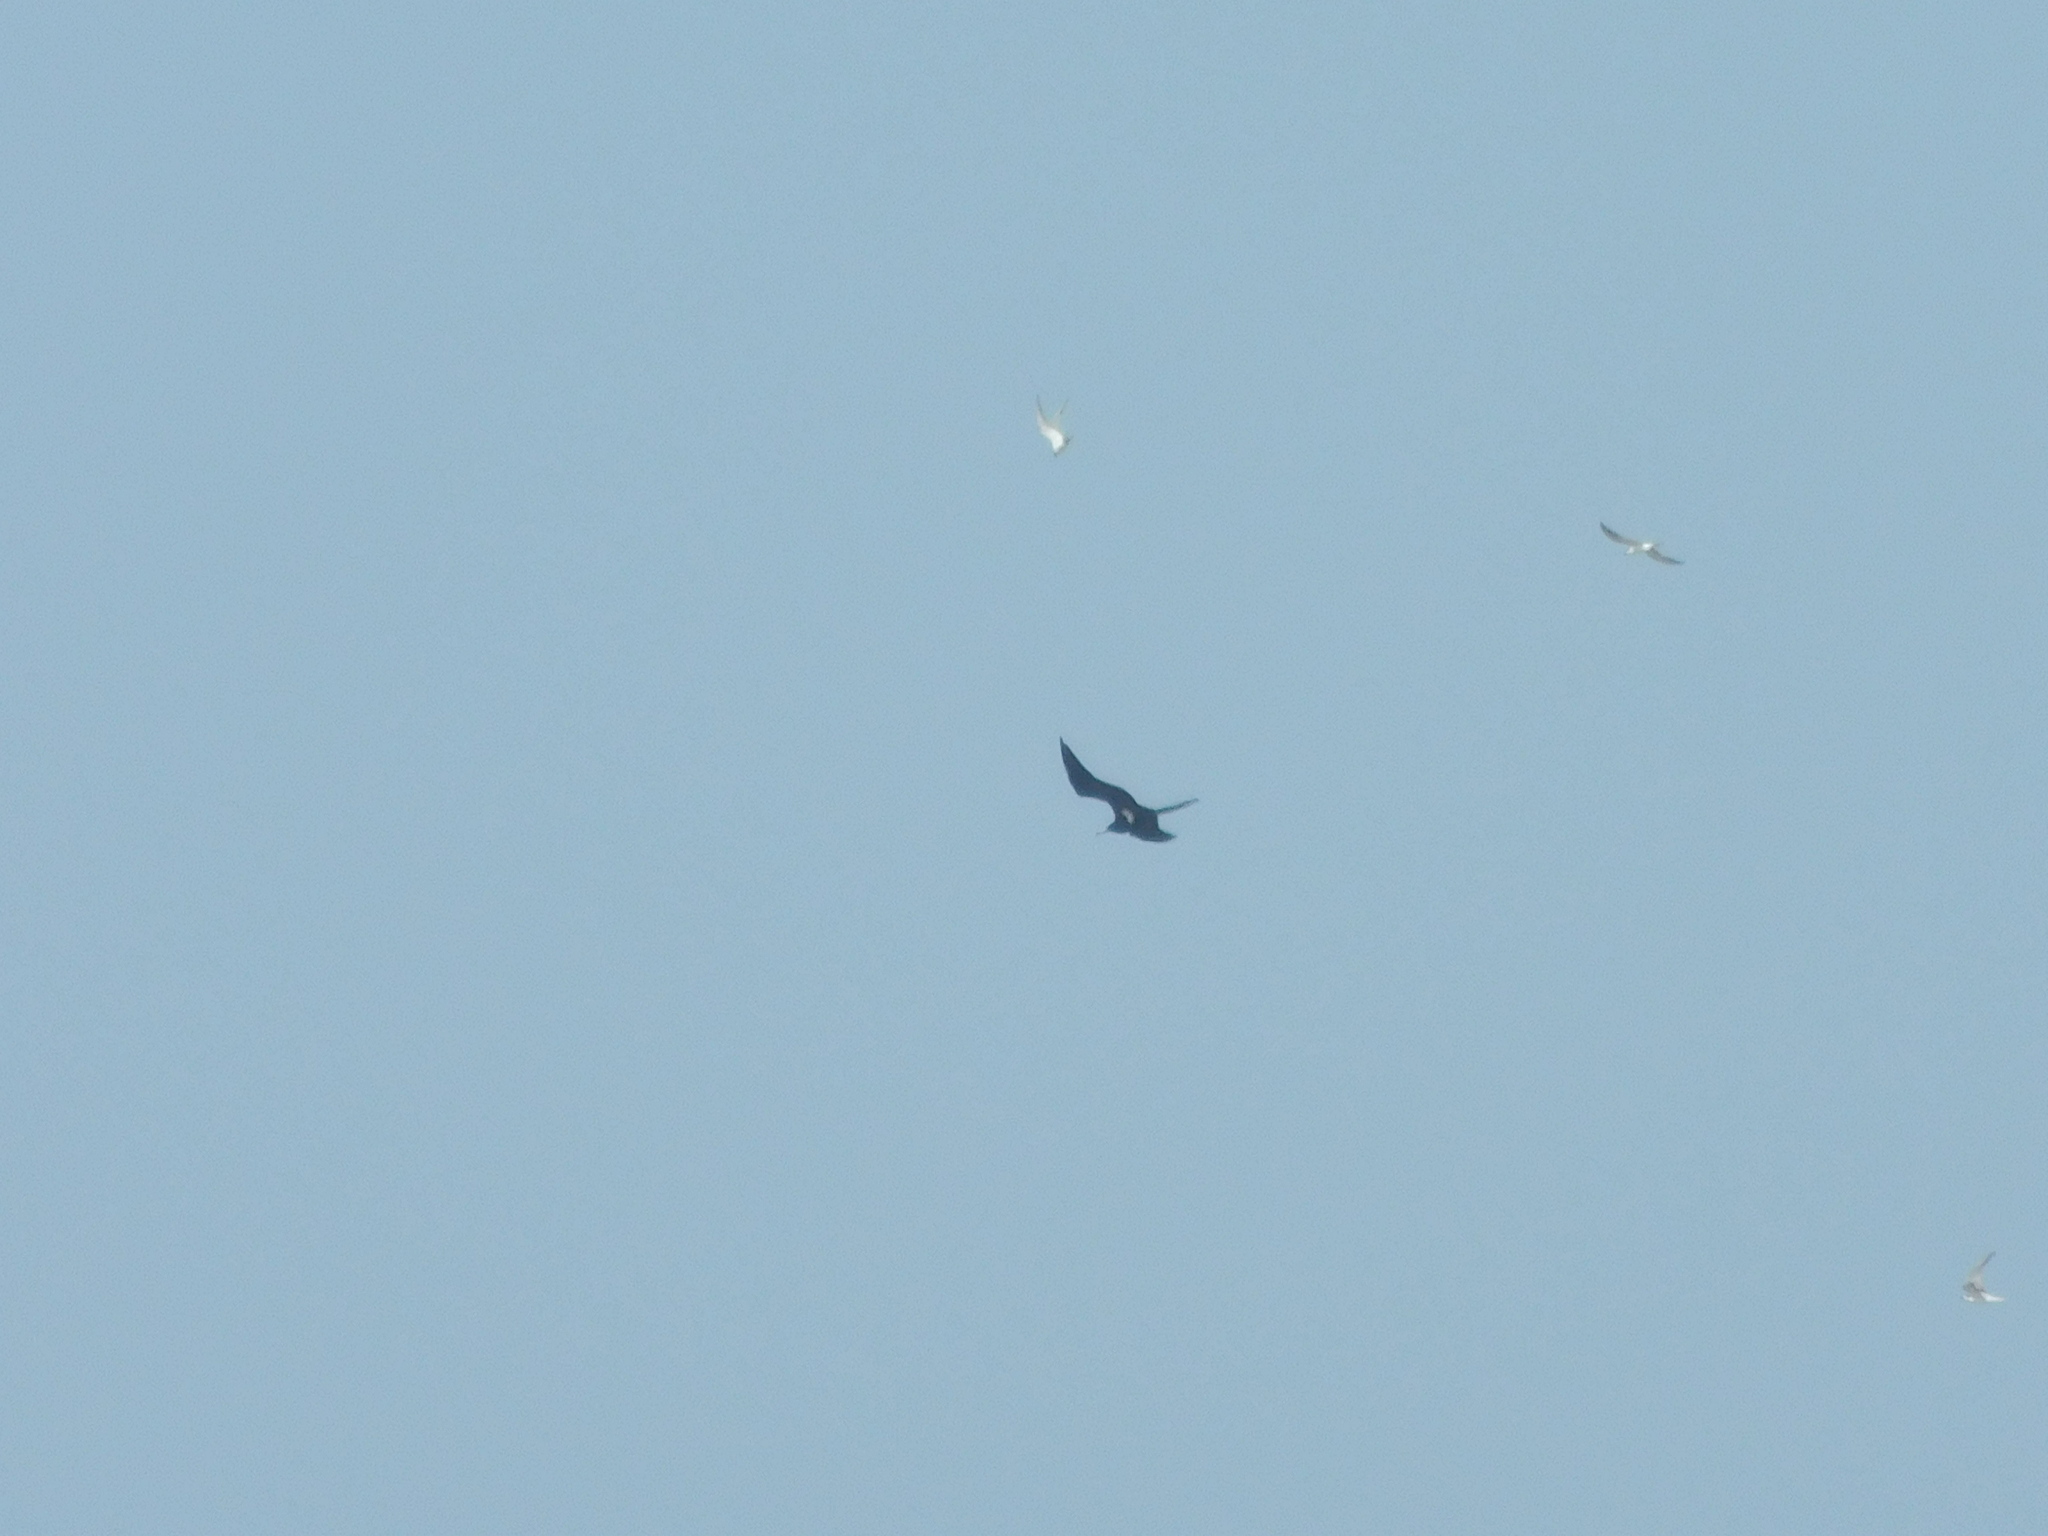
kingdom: Animalia
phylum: Chordata
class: Aves
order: Suliformes
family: Fregatidae
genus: Fregata
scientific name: Fregata ariel
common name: Lesser frigatebird
